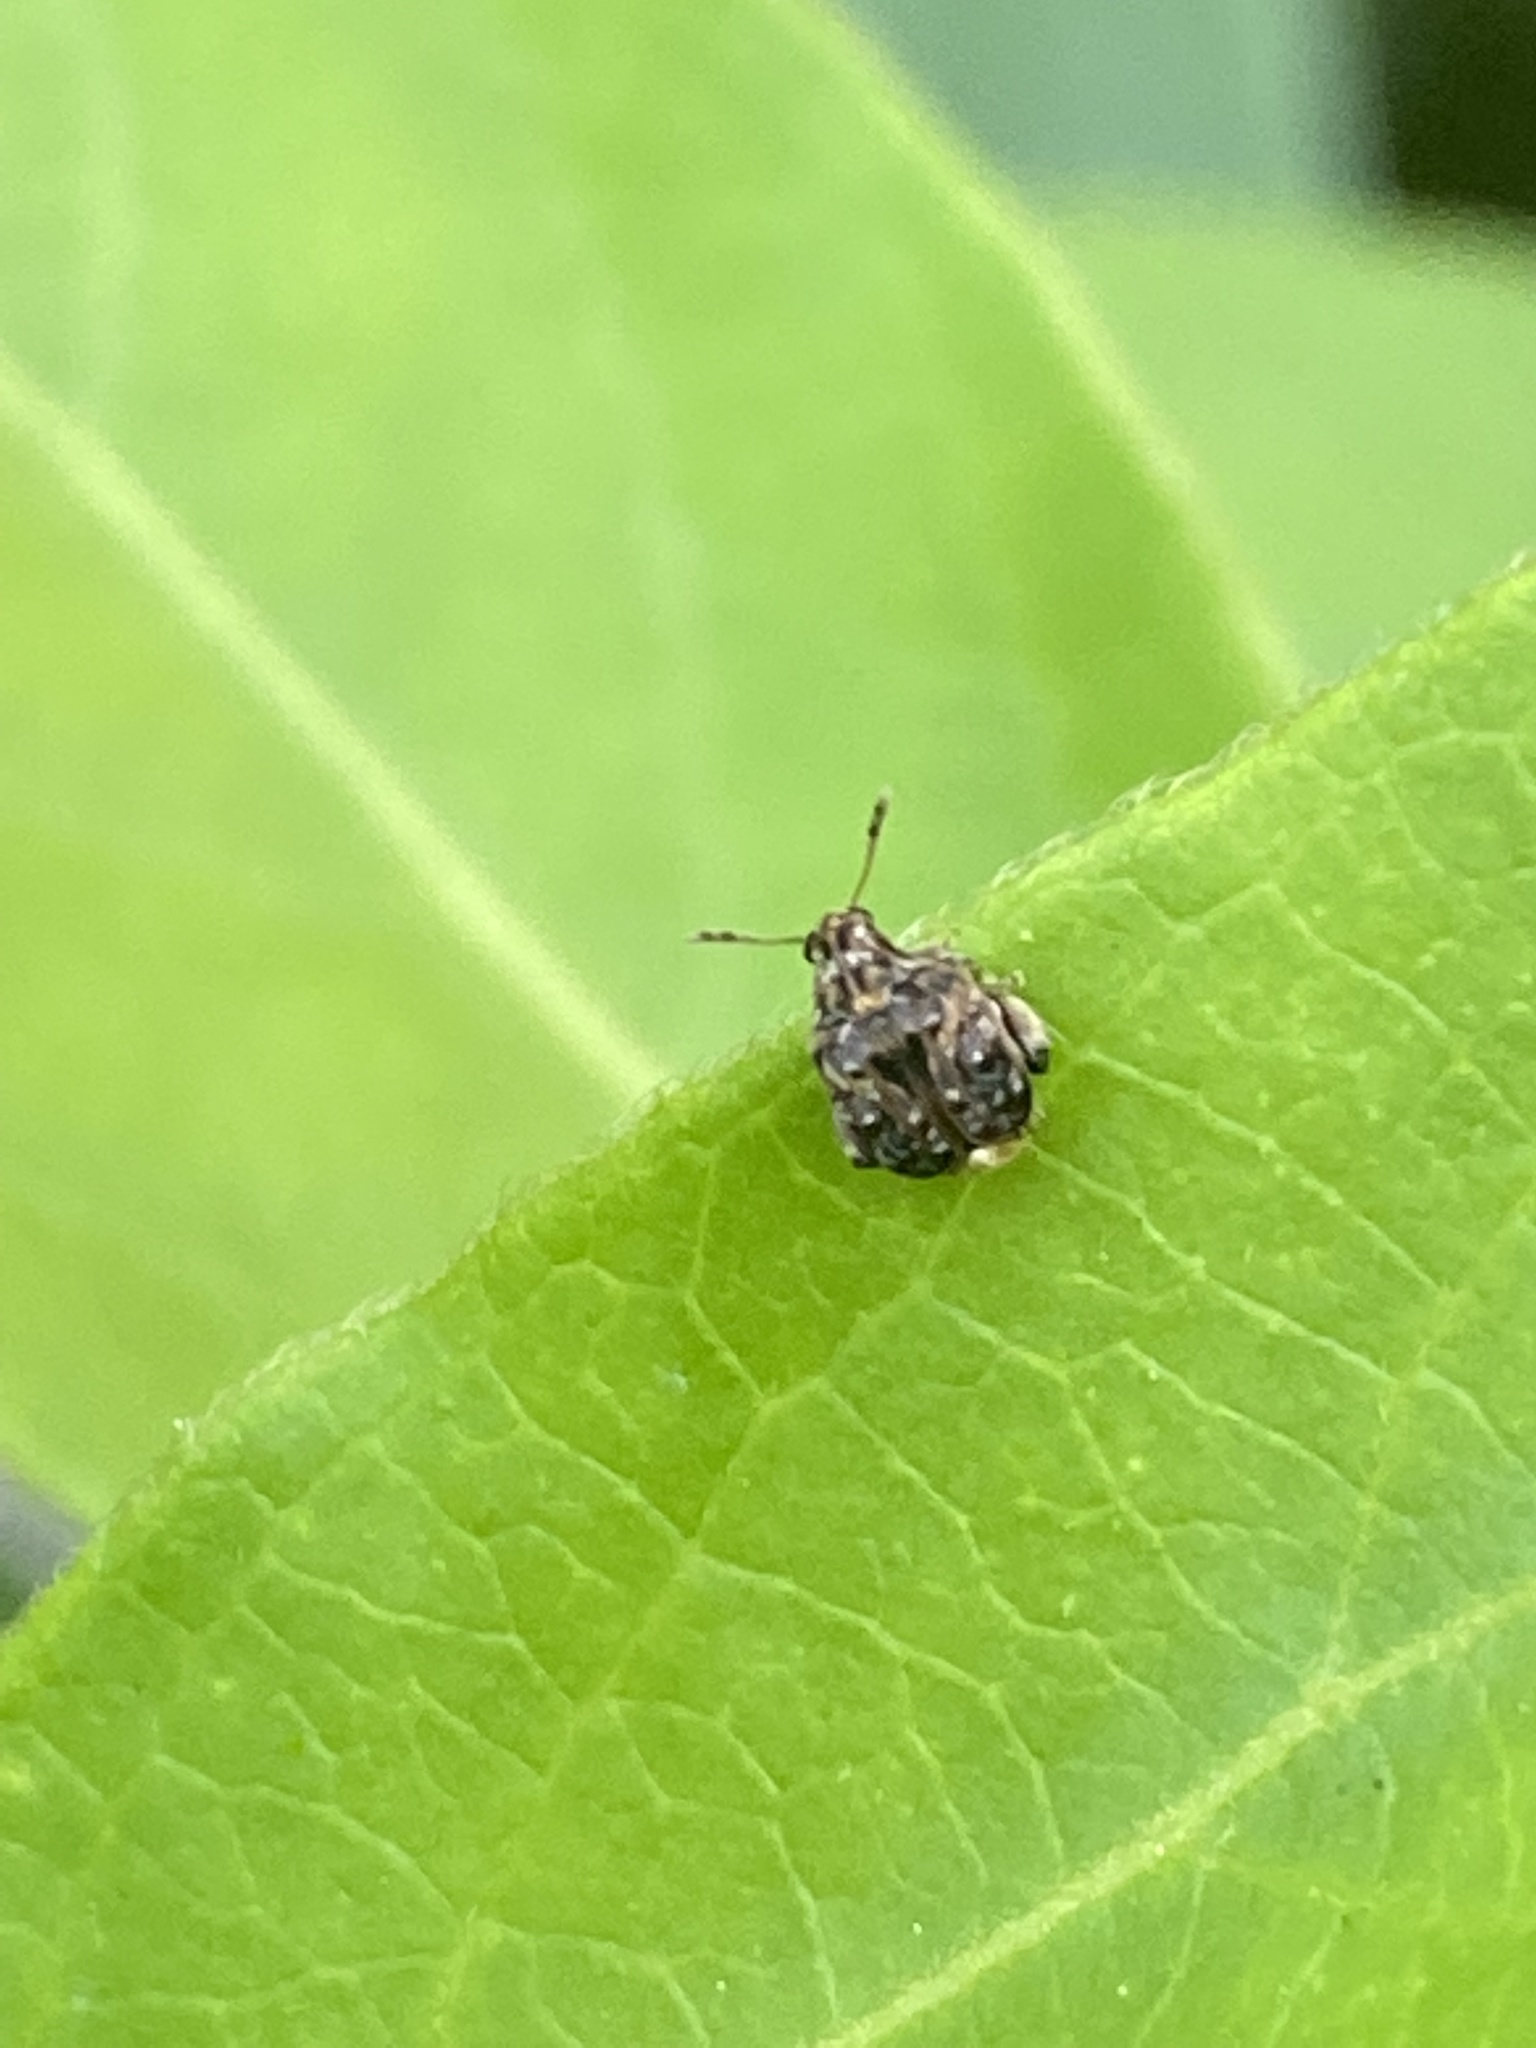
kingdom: Animalia
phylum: Arthropoda
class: Insecta
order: Coleoptera
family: Chrysomelidae
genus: Gibbobruchus
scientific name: Gibbobruchus mimus
